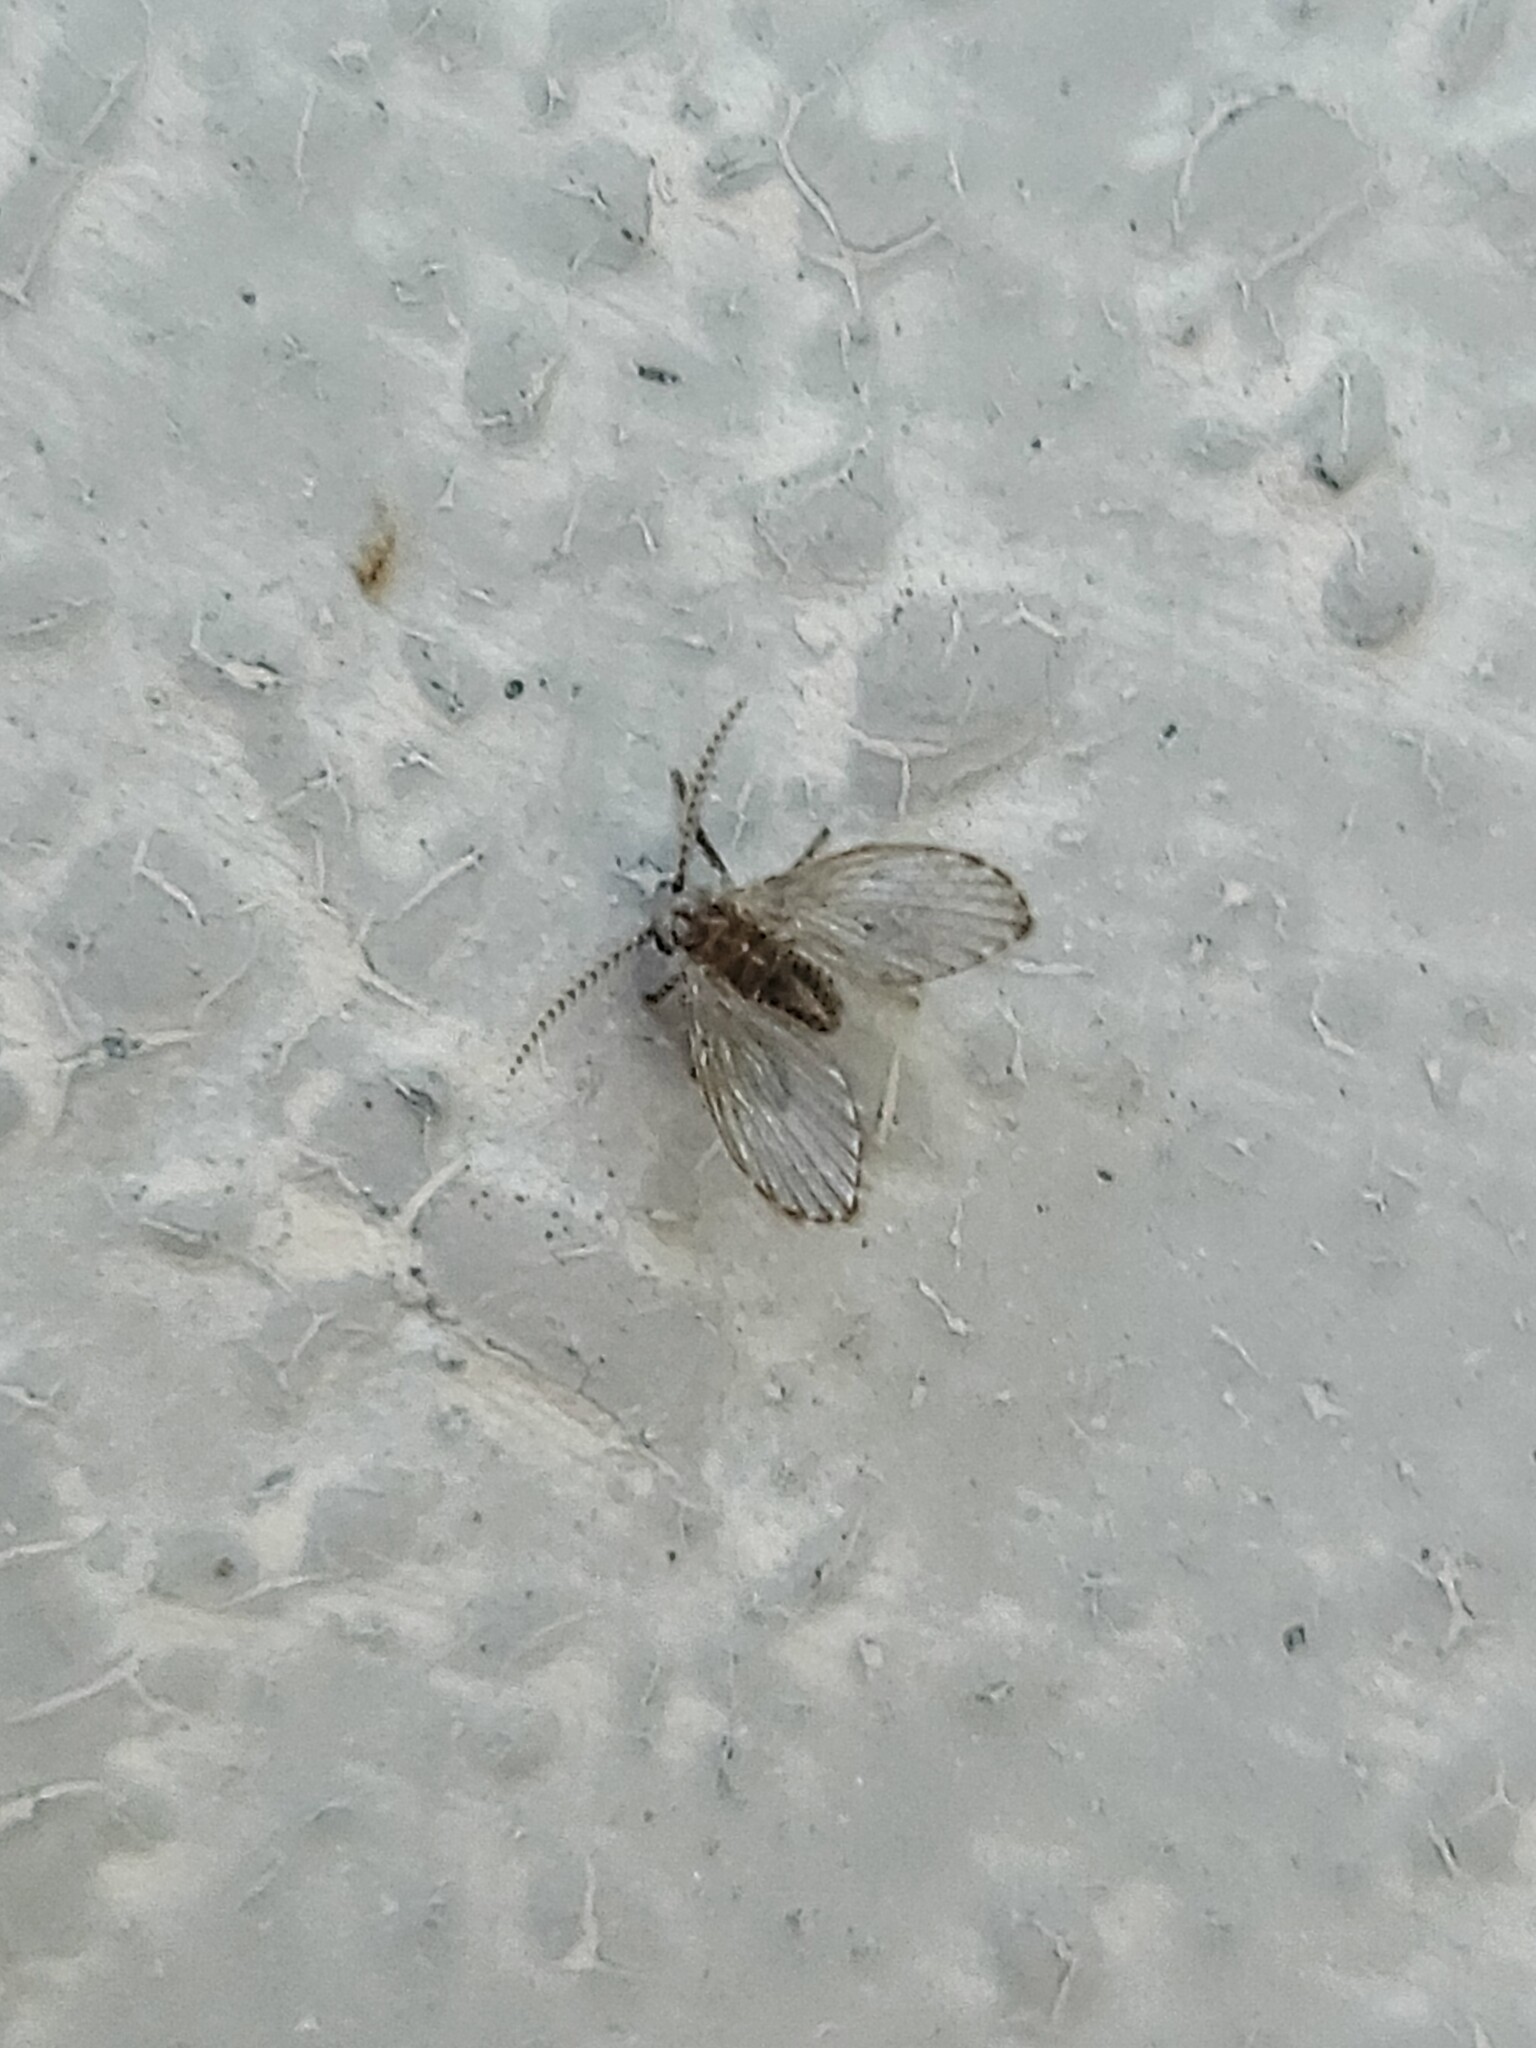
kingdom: Animalia
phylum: Arthropoda
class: Insecta
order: Diptera
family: Psychodidae
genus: Clogmia
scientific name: Clogmia albipunctatus
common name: White-spotted moth fly
